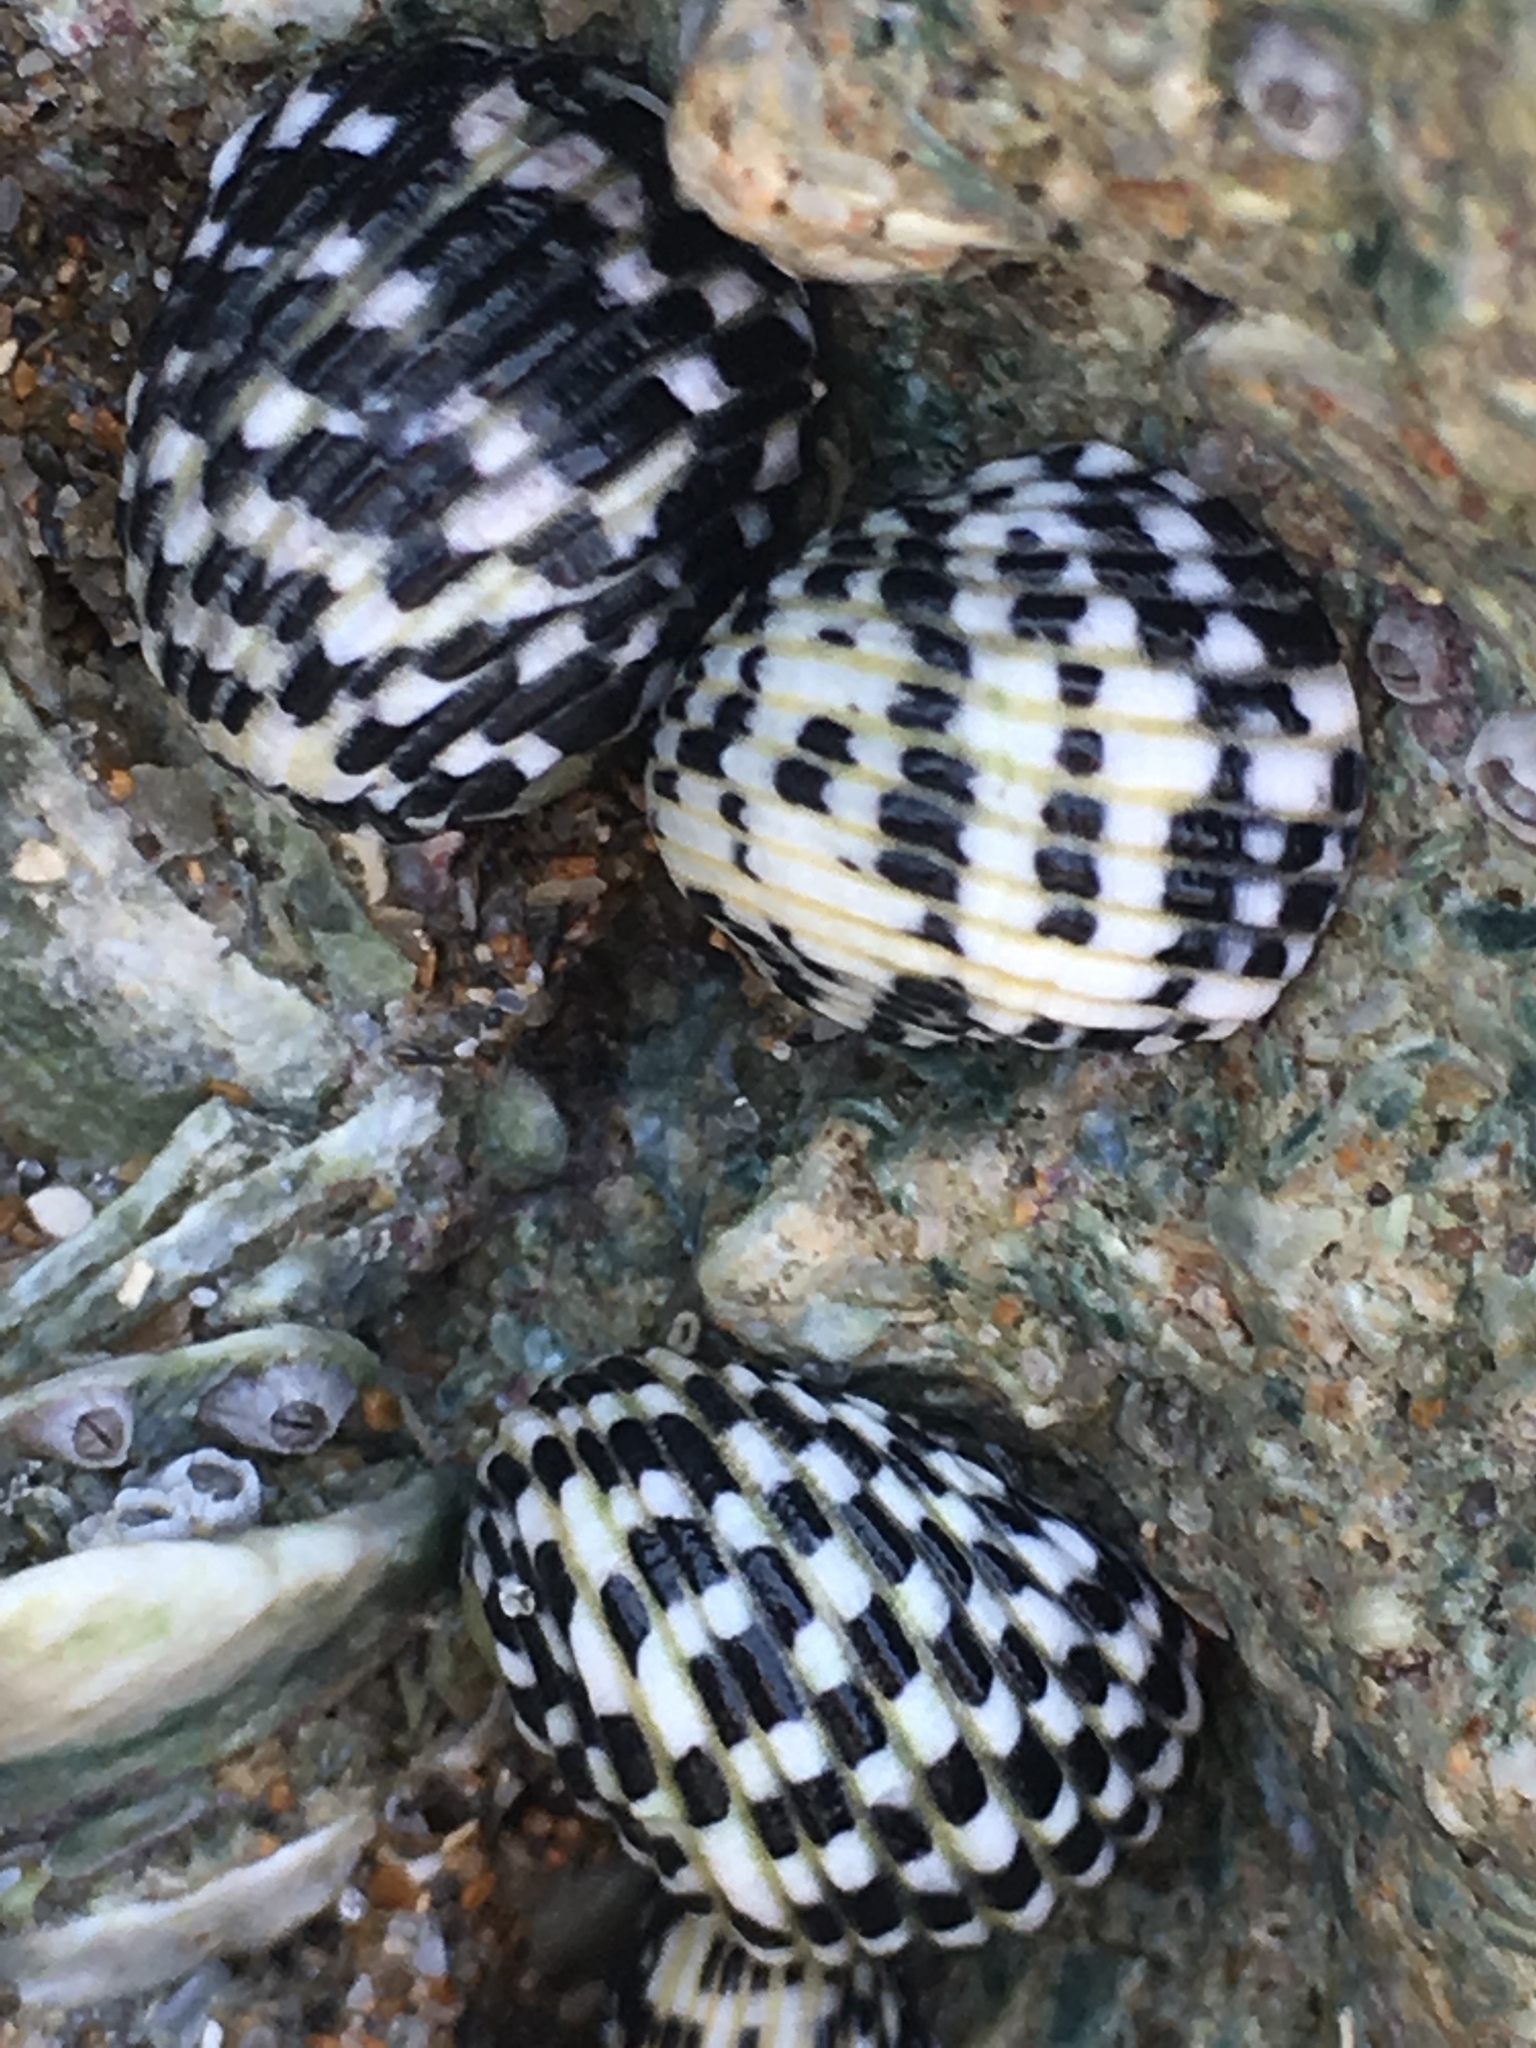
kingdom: Animalia
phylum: Mollusca
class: Gastropoda
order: Cycloneritida
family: Neritidae
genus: Nerita
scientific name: Nerita tessellata
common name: Checkered nerite
